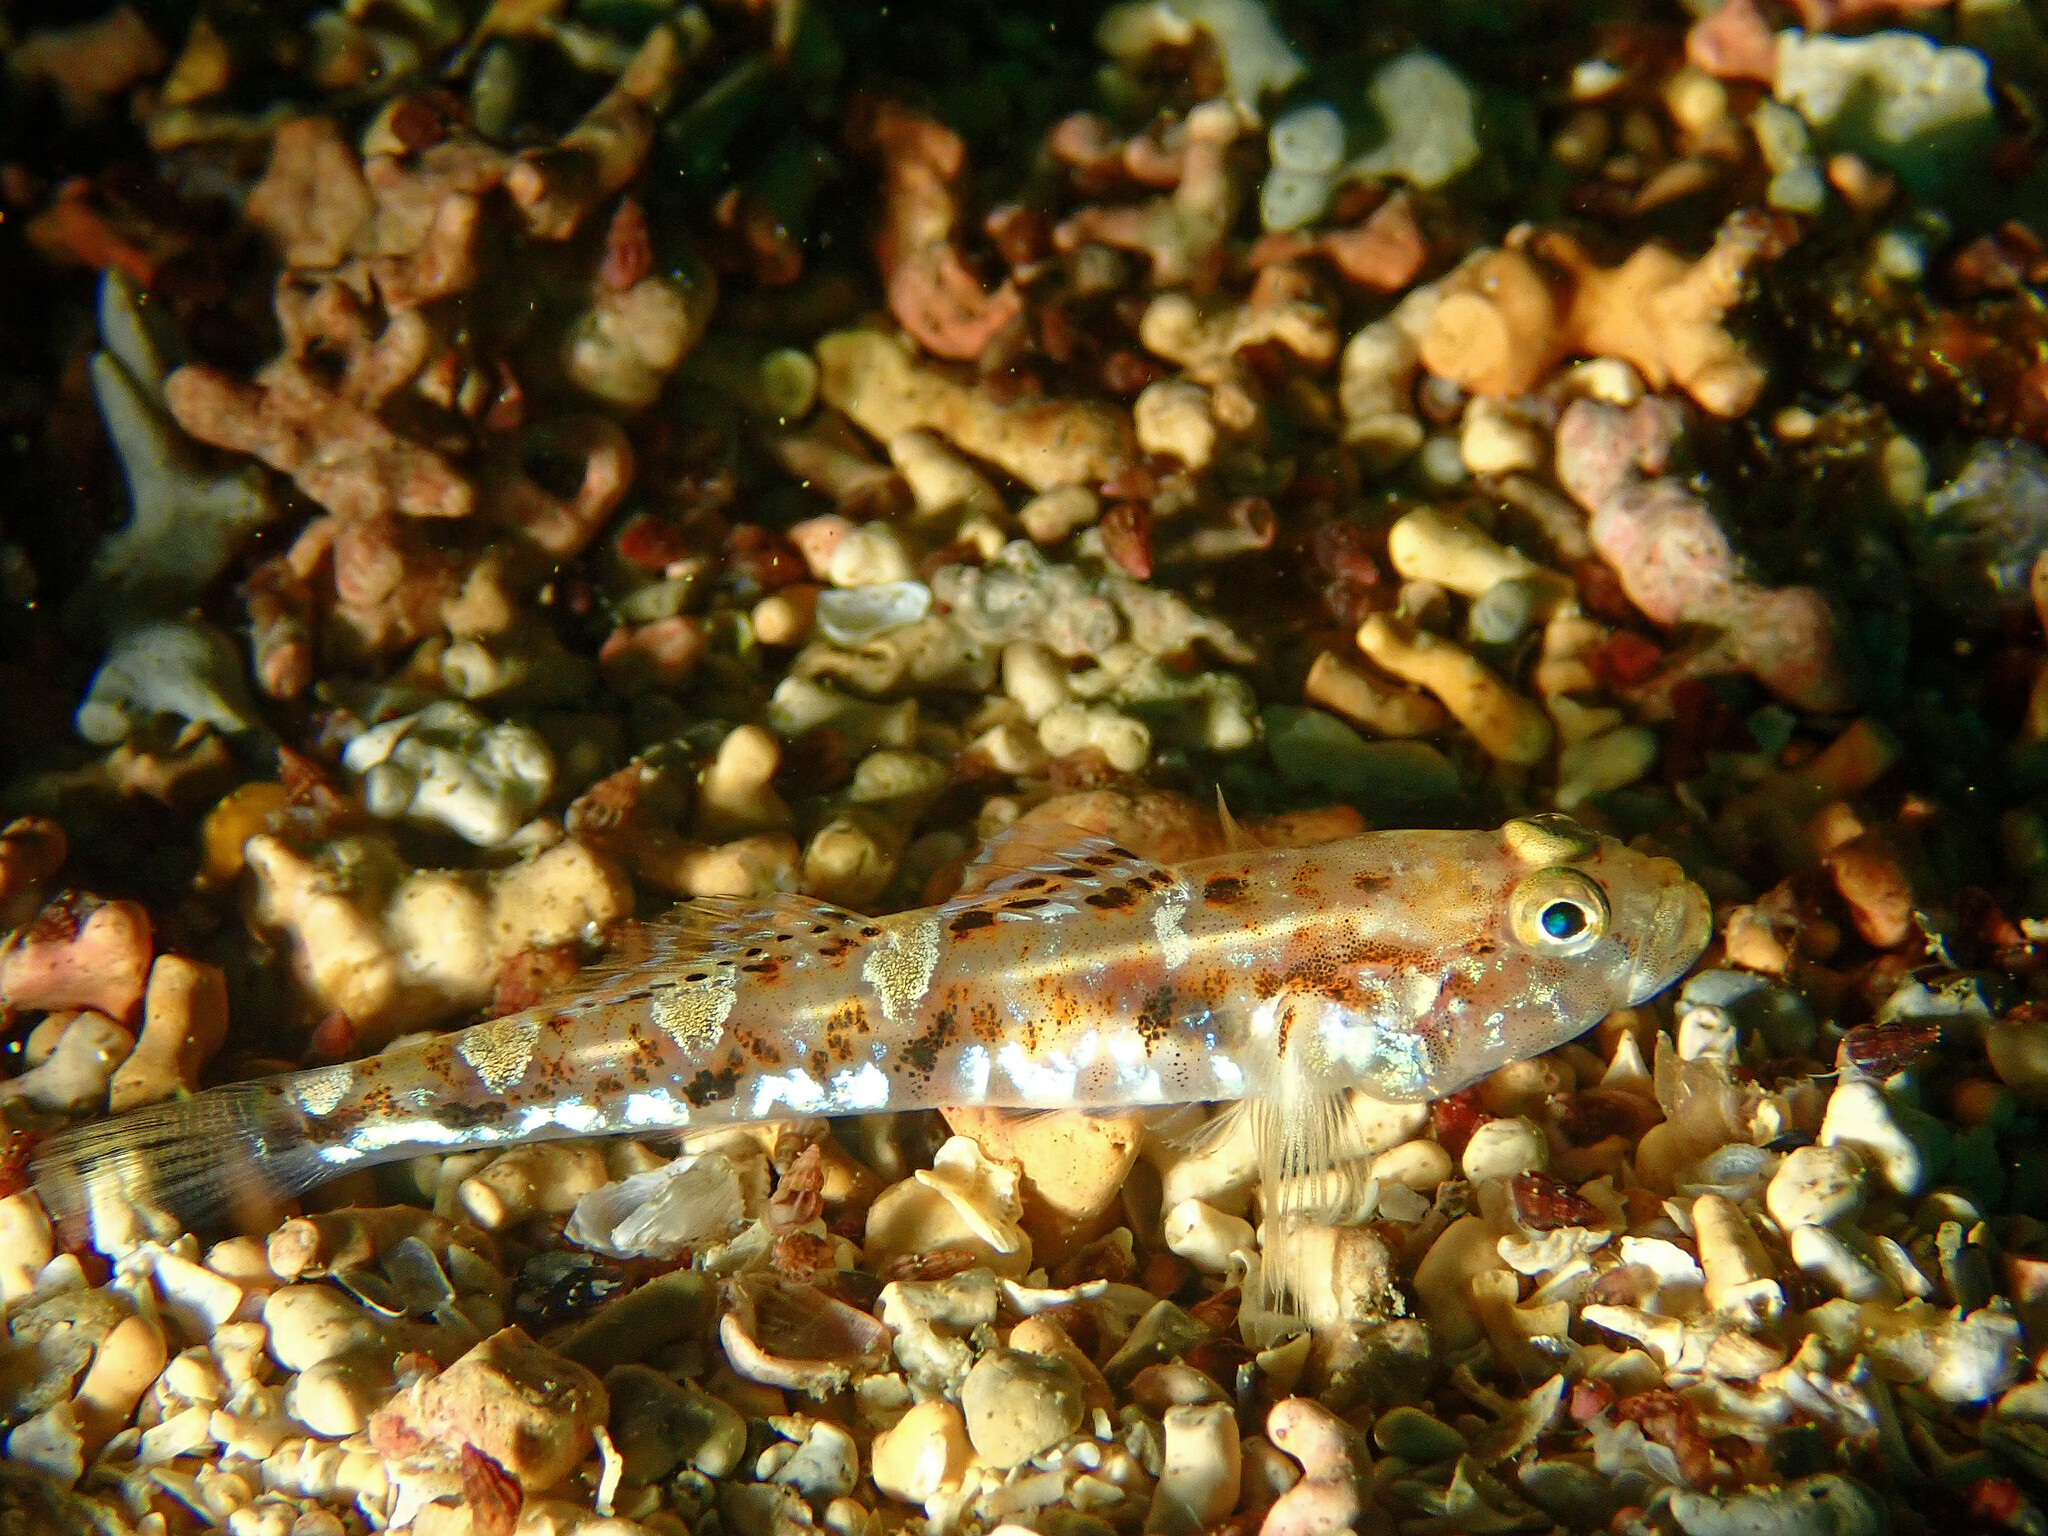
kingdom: Animalia
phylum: Chordata
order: Perciformes
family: Gobiidae
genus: Pomatoschistus
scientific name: Pomatoschistus pictus
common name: Painted goby
